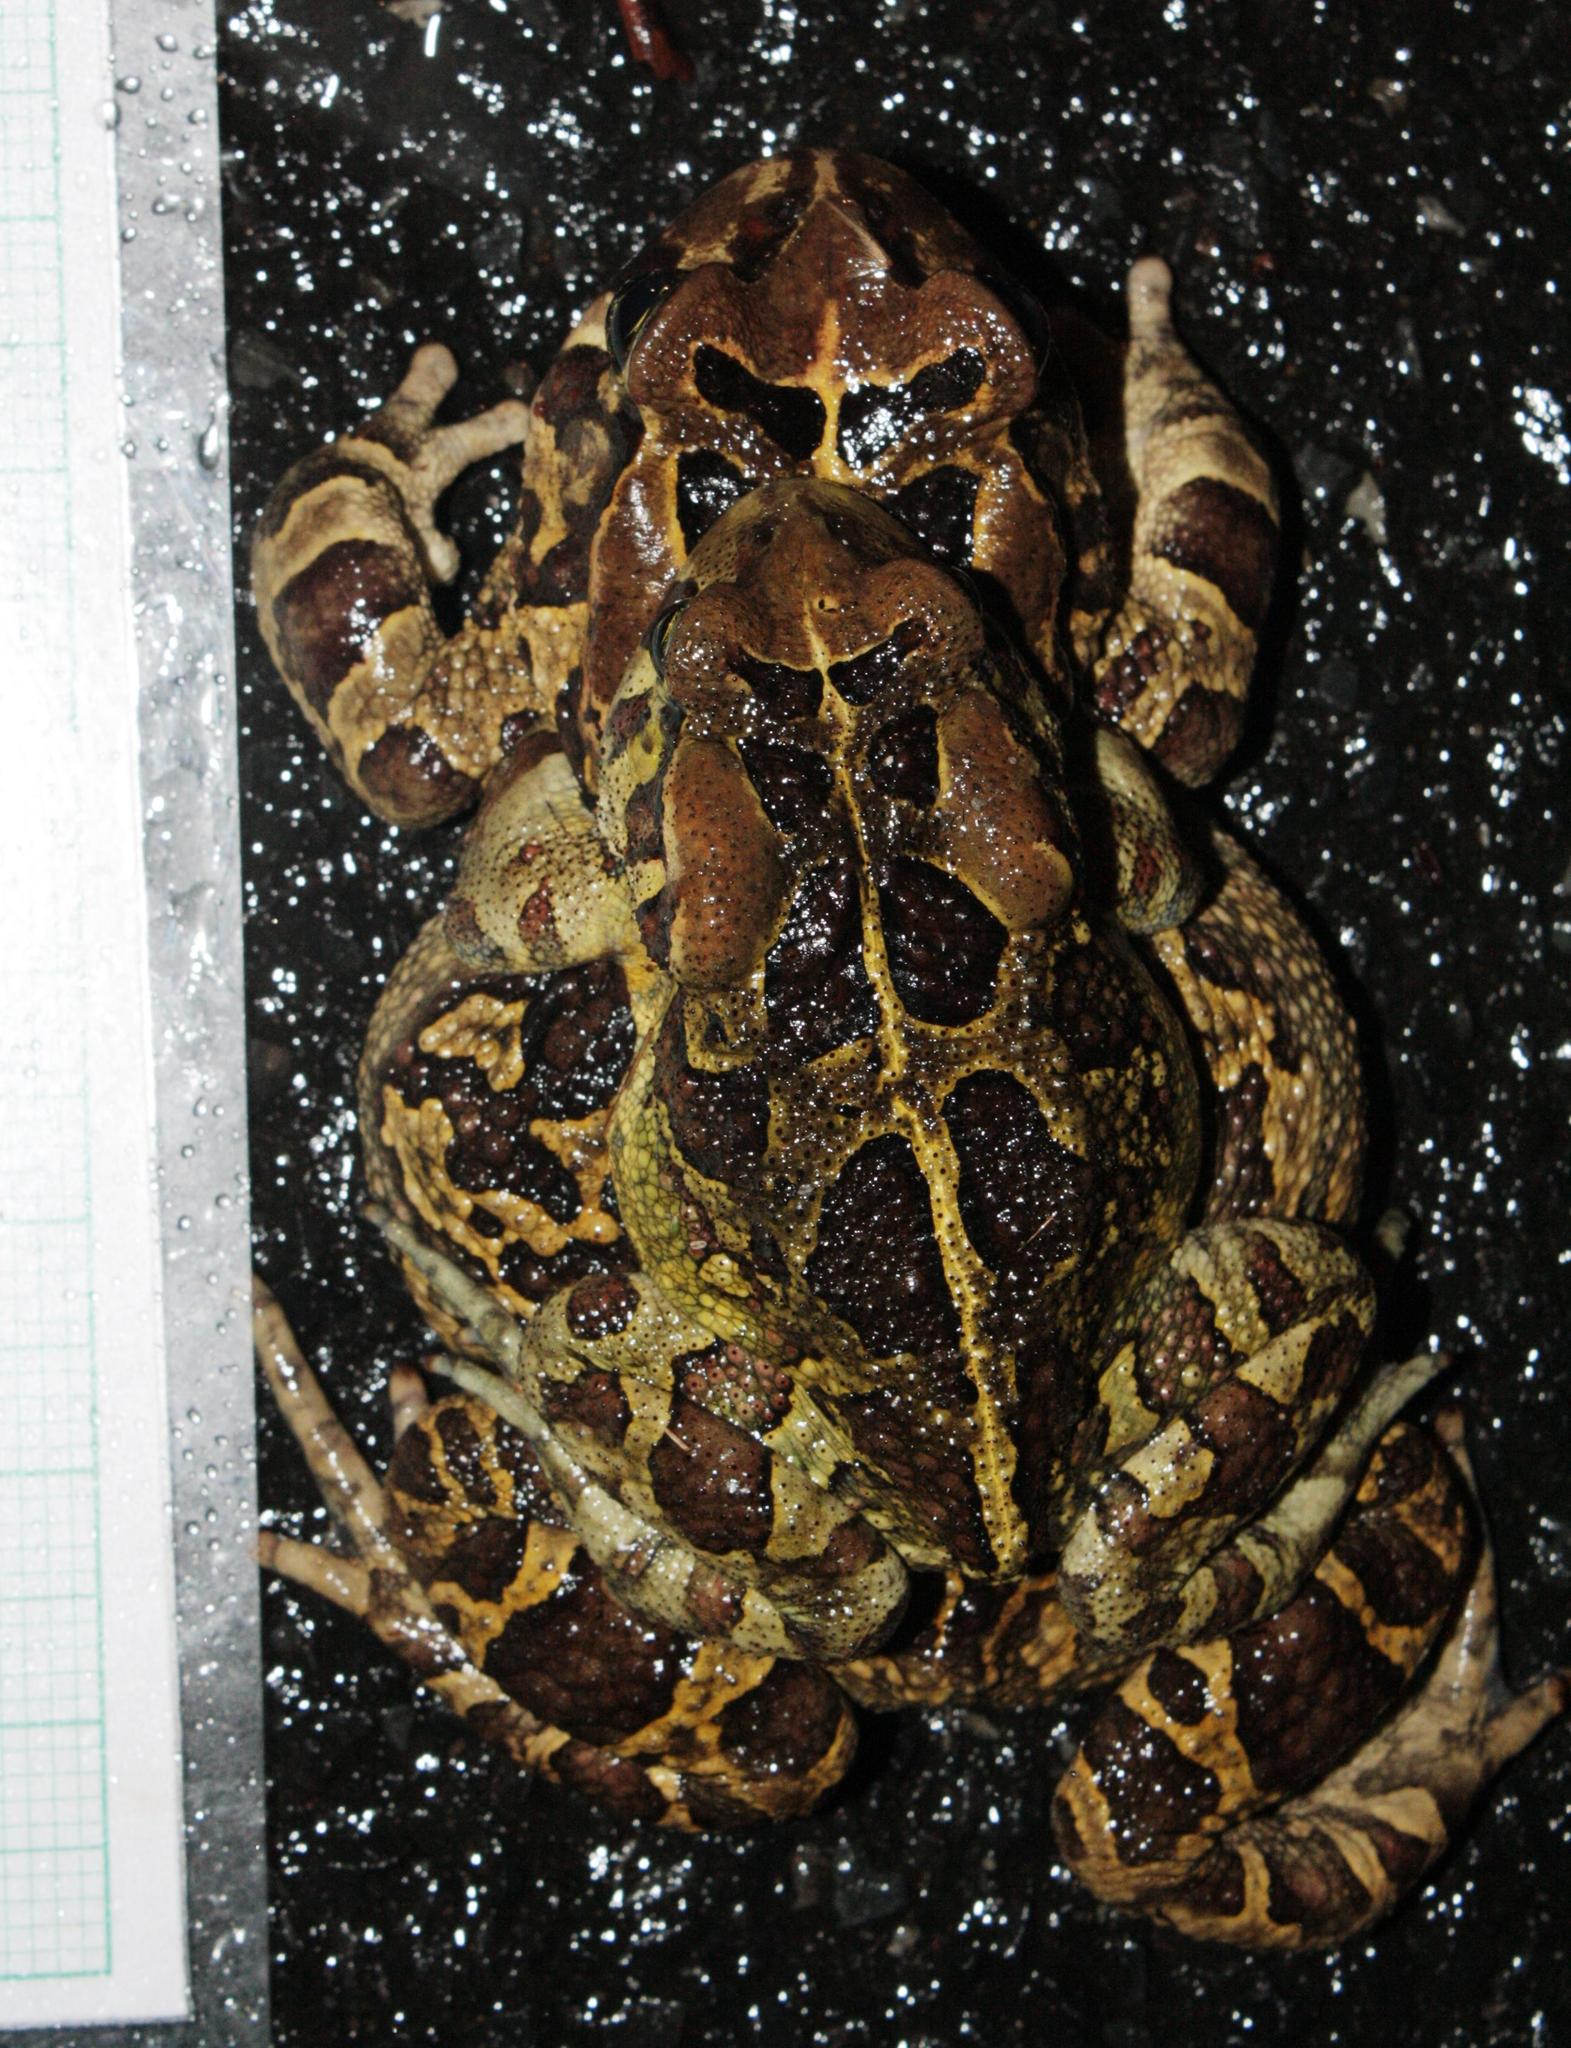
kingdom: Animalia
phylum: Chordata
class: Amphibia
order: Anura
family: Bufonidae
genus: Sclerophrys
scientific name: Sclerophrys pantherina
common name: Panther toad
